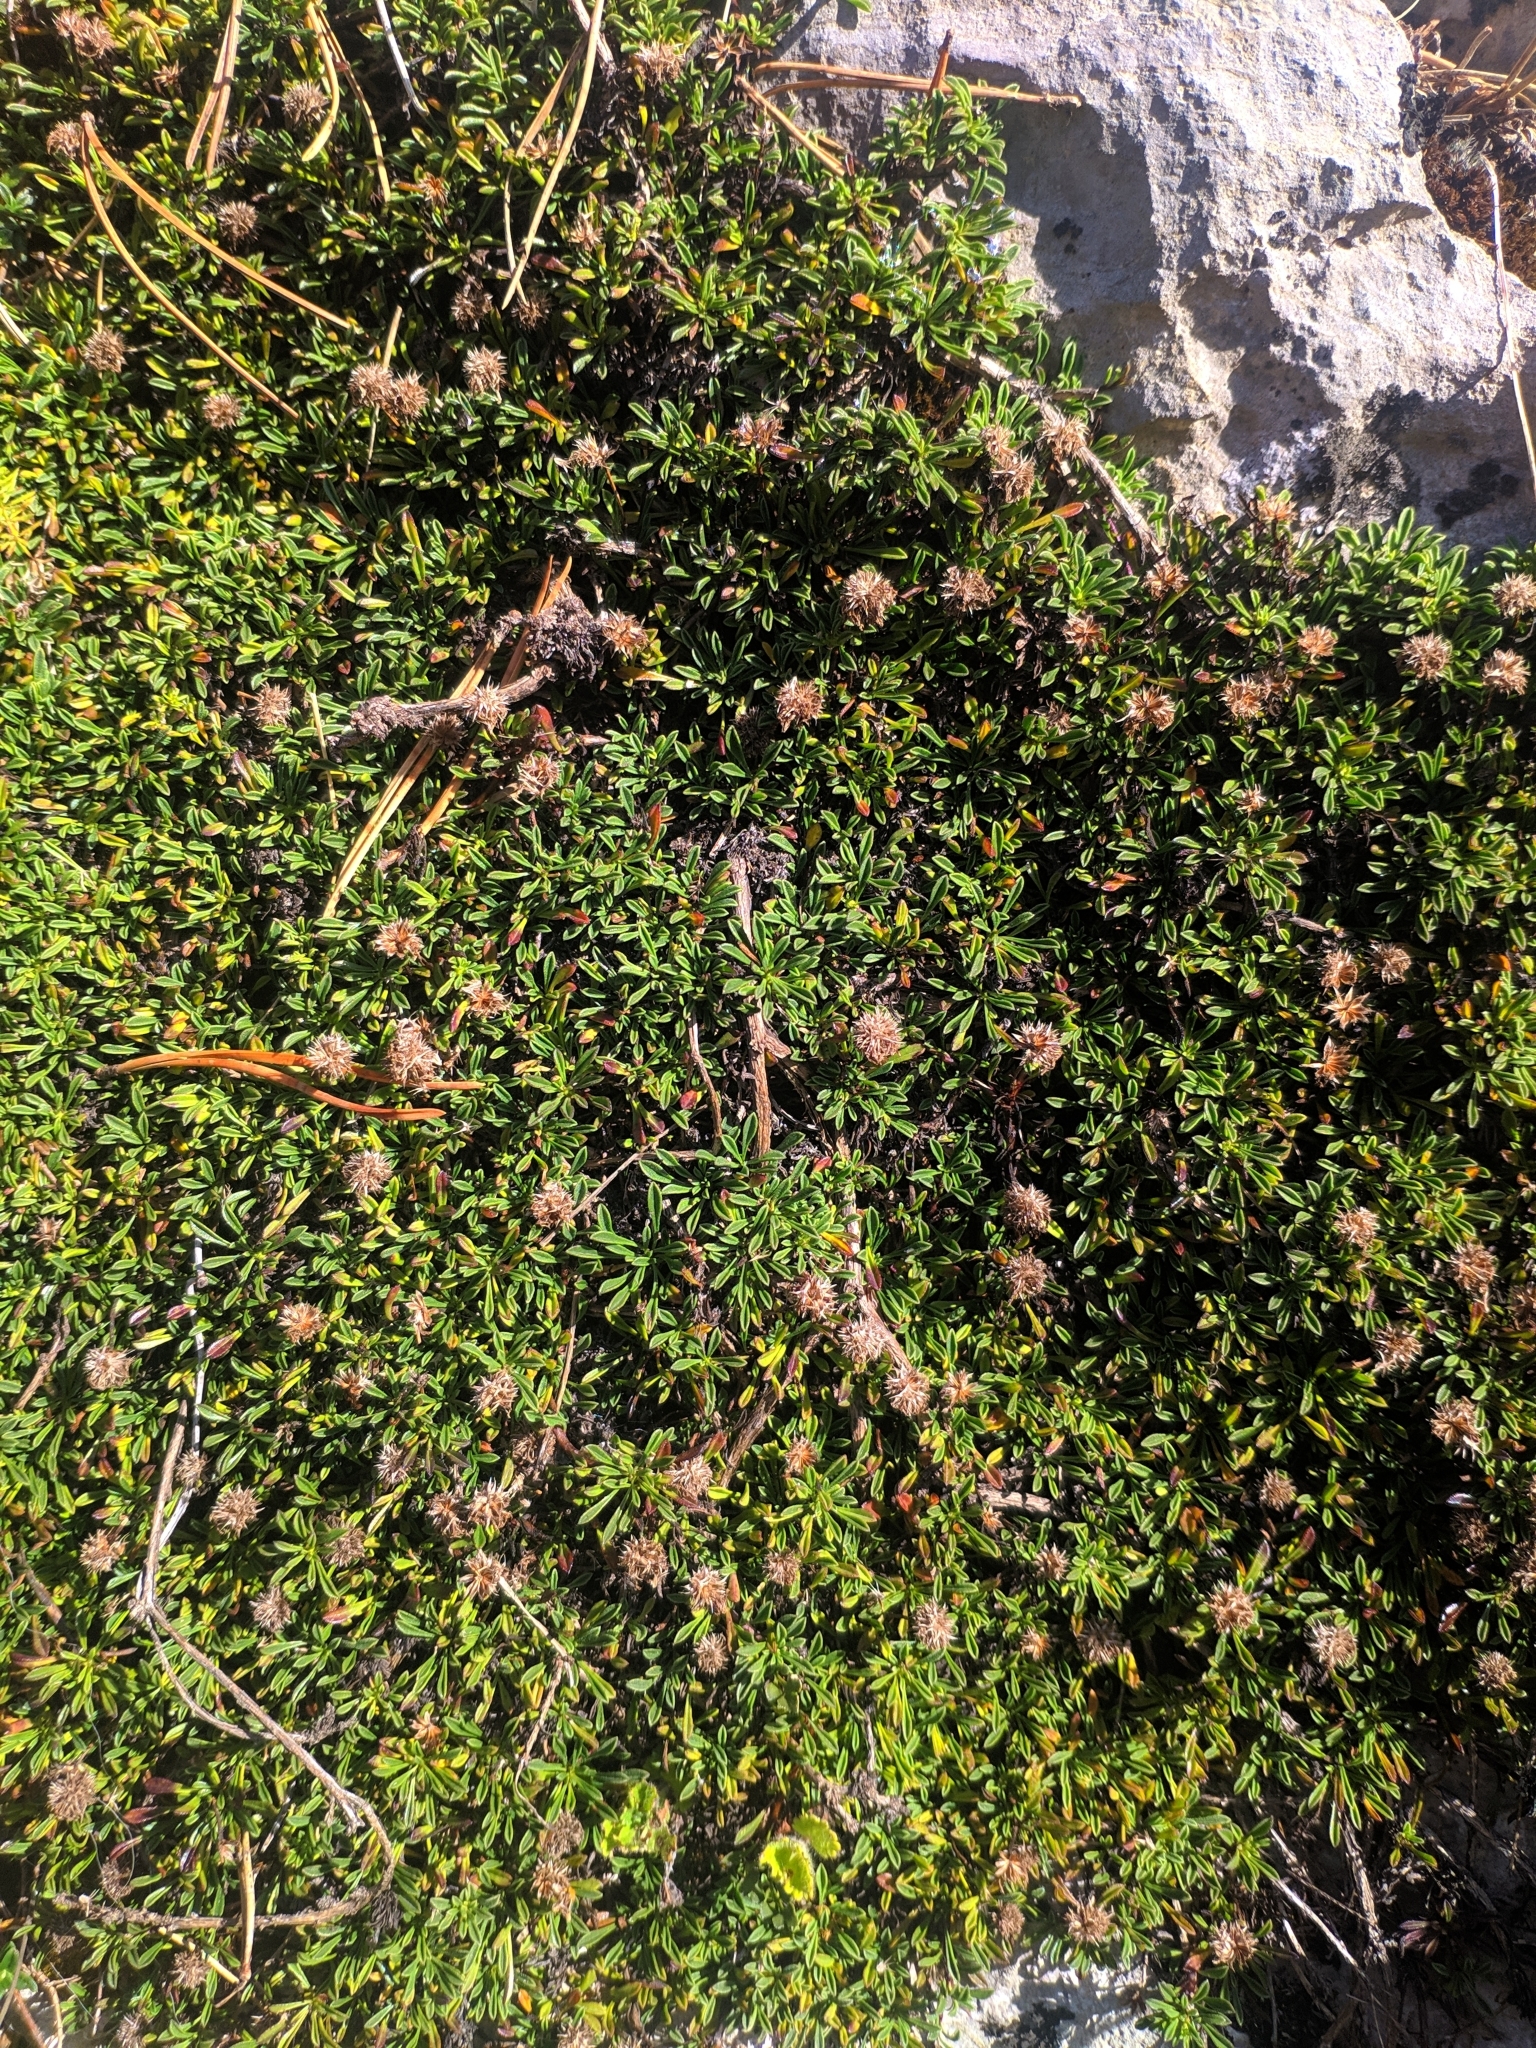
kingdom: Plantae
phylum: Tracheophyta
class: Magnoliopsida
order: Lamiales
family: Plantaginaceae
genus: Globularia
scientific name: Globularia repens
